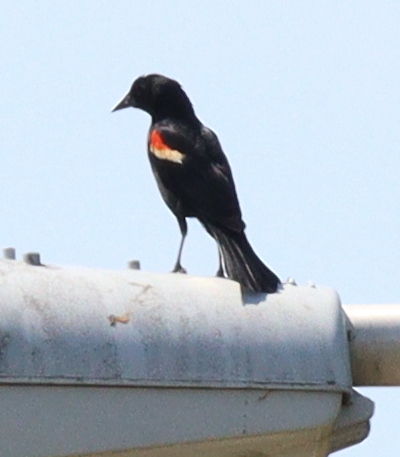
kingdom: Animalia
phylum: Chordata
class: Aves
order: Passeriformes
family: Icteridae
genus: Agelaius
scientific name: Agelaius phoeniceus
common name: Red-winged blackbird
